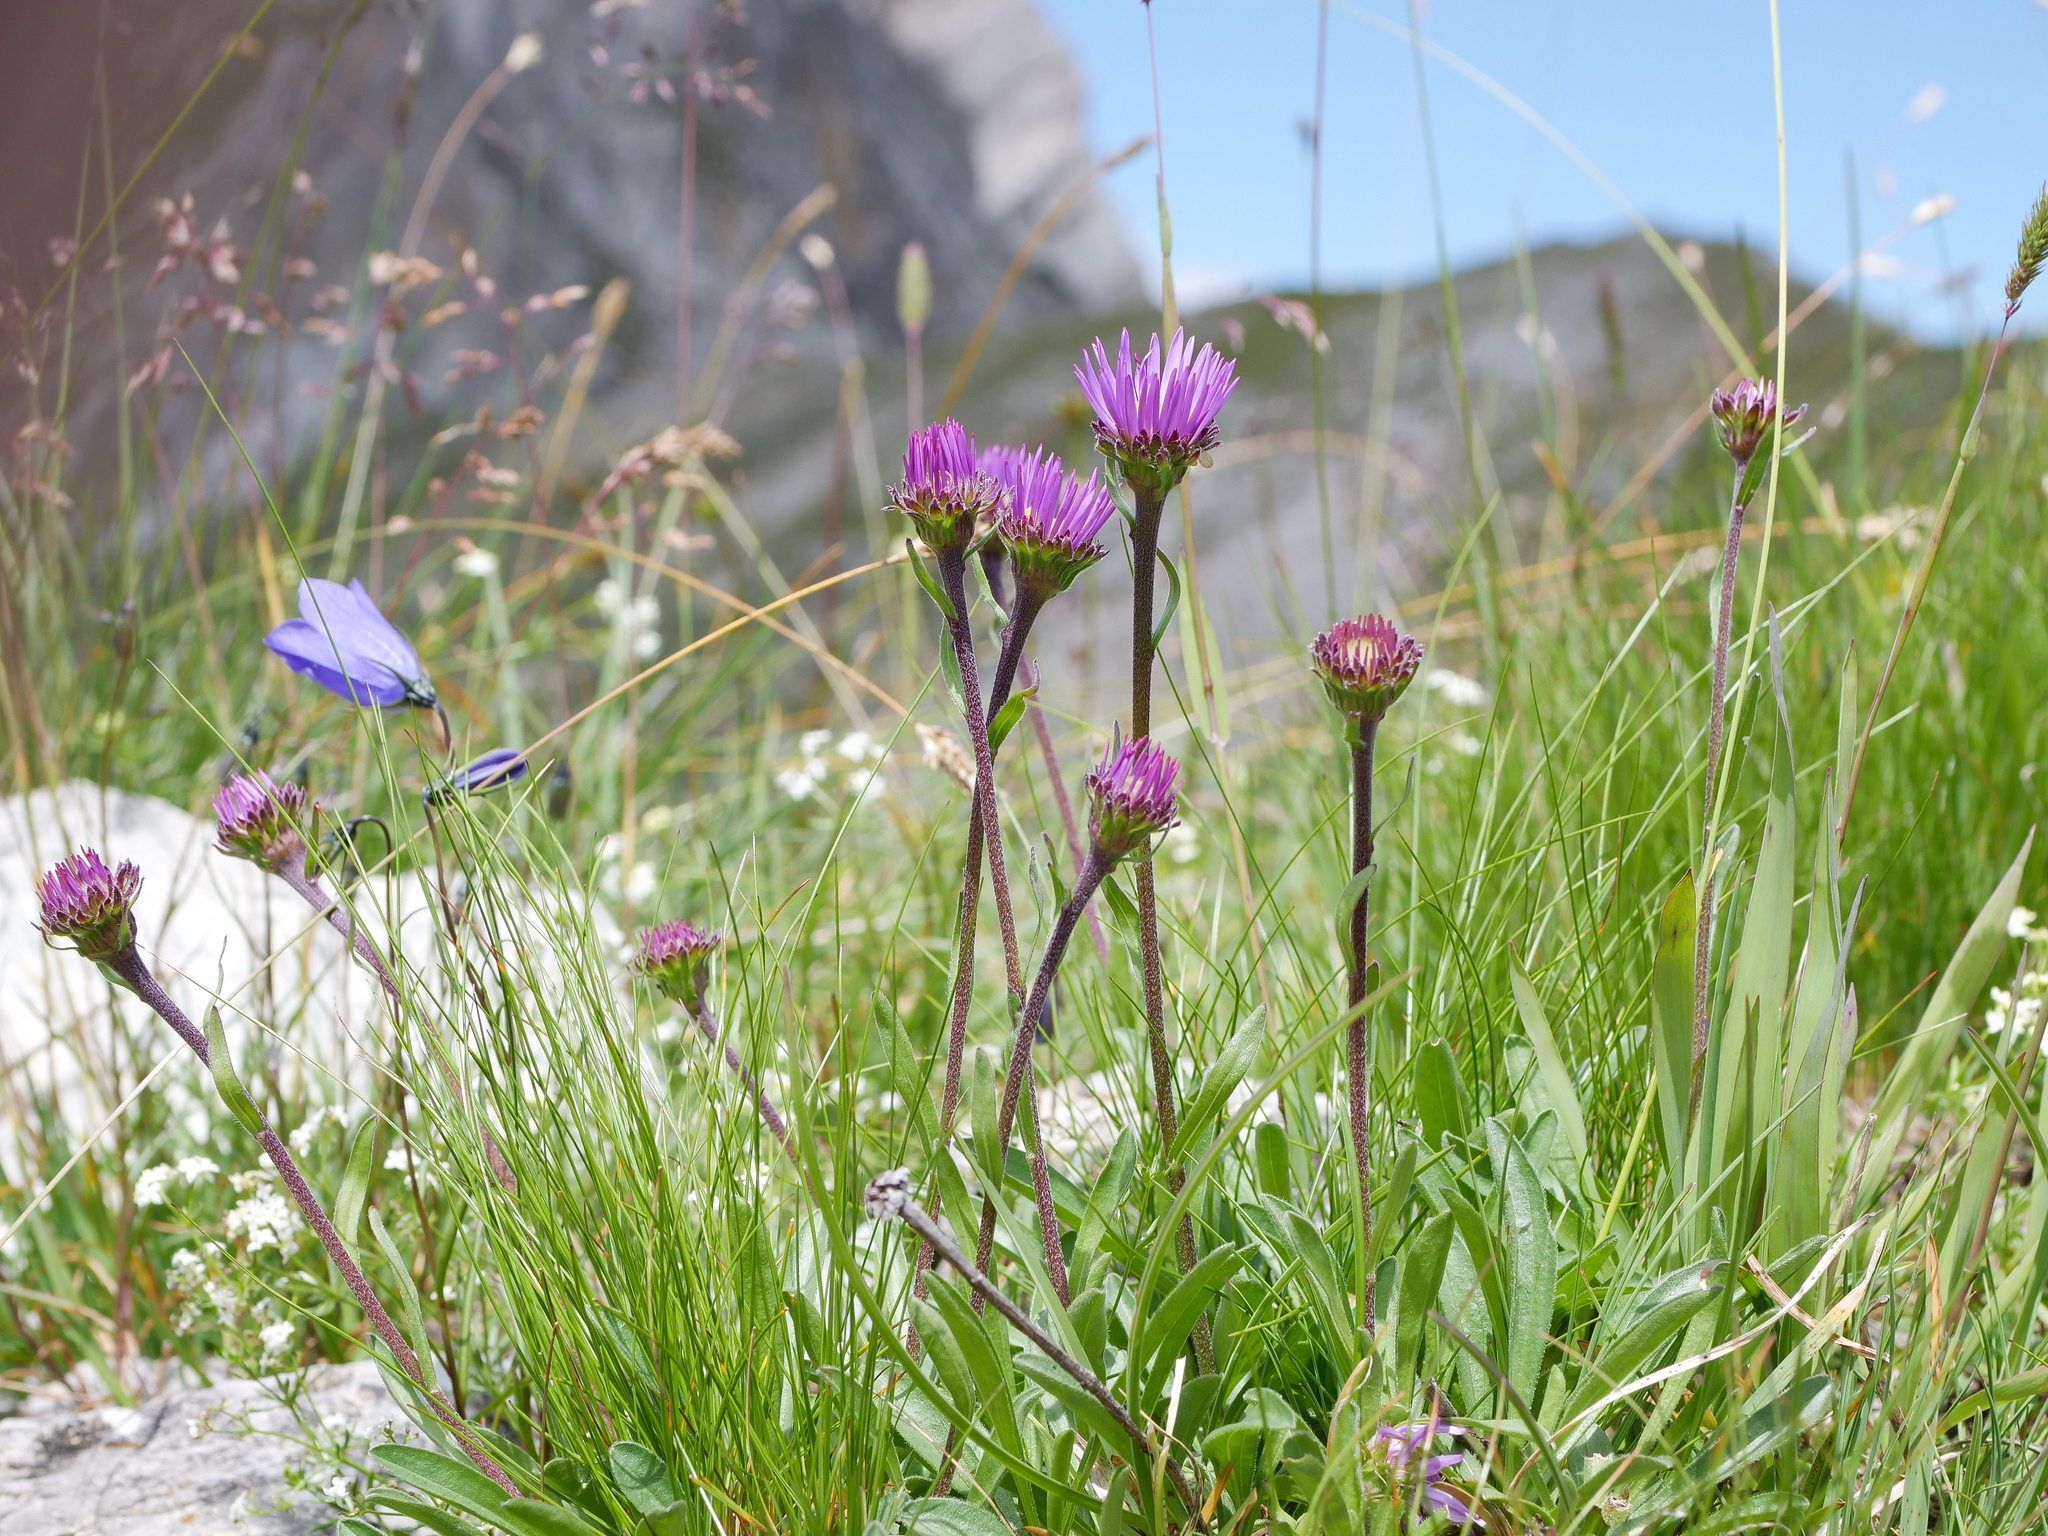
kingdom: Plantae
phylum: Tracheophyta
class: Magnoliopsida
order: Asterales
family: Asteraceae
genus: Aster
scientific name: Aster alpinus
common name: Alpine aster
